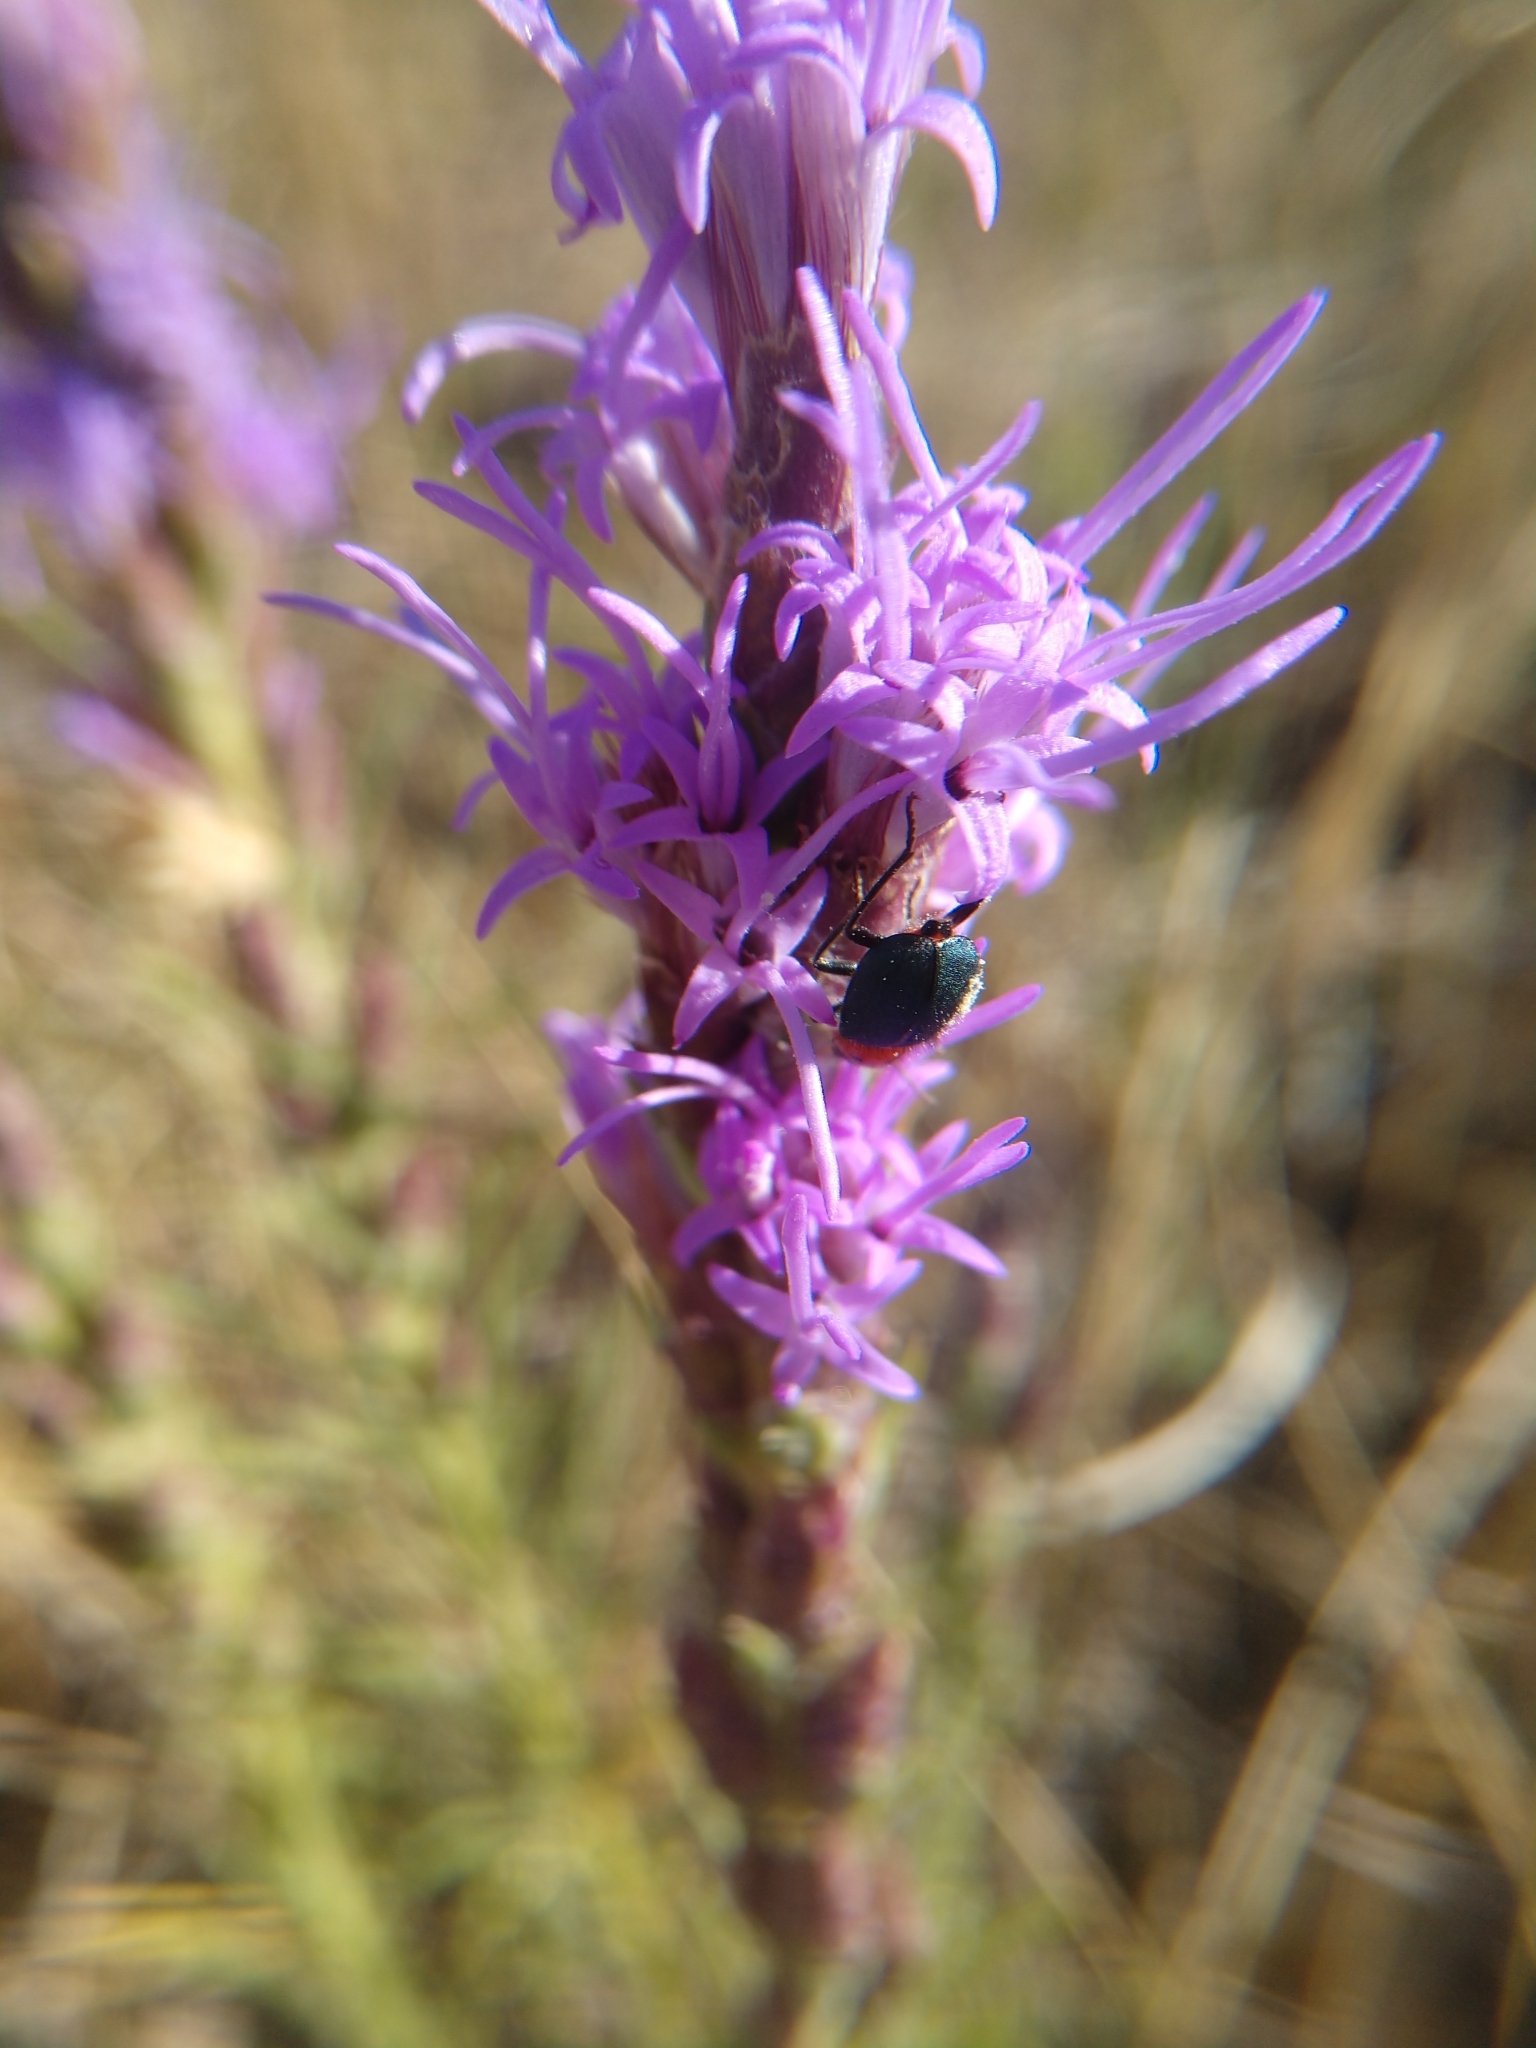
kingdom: Animalia
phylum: Arthropoda
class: Insecta
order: Coleoptera
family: Melyridae
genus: Collops
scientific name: Collops bipunctatus
